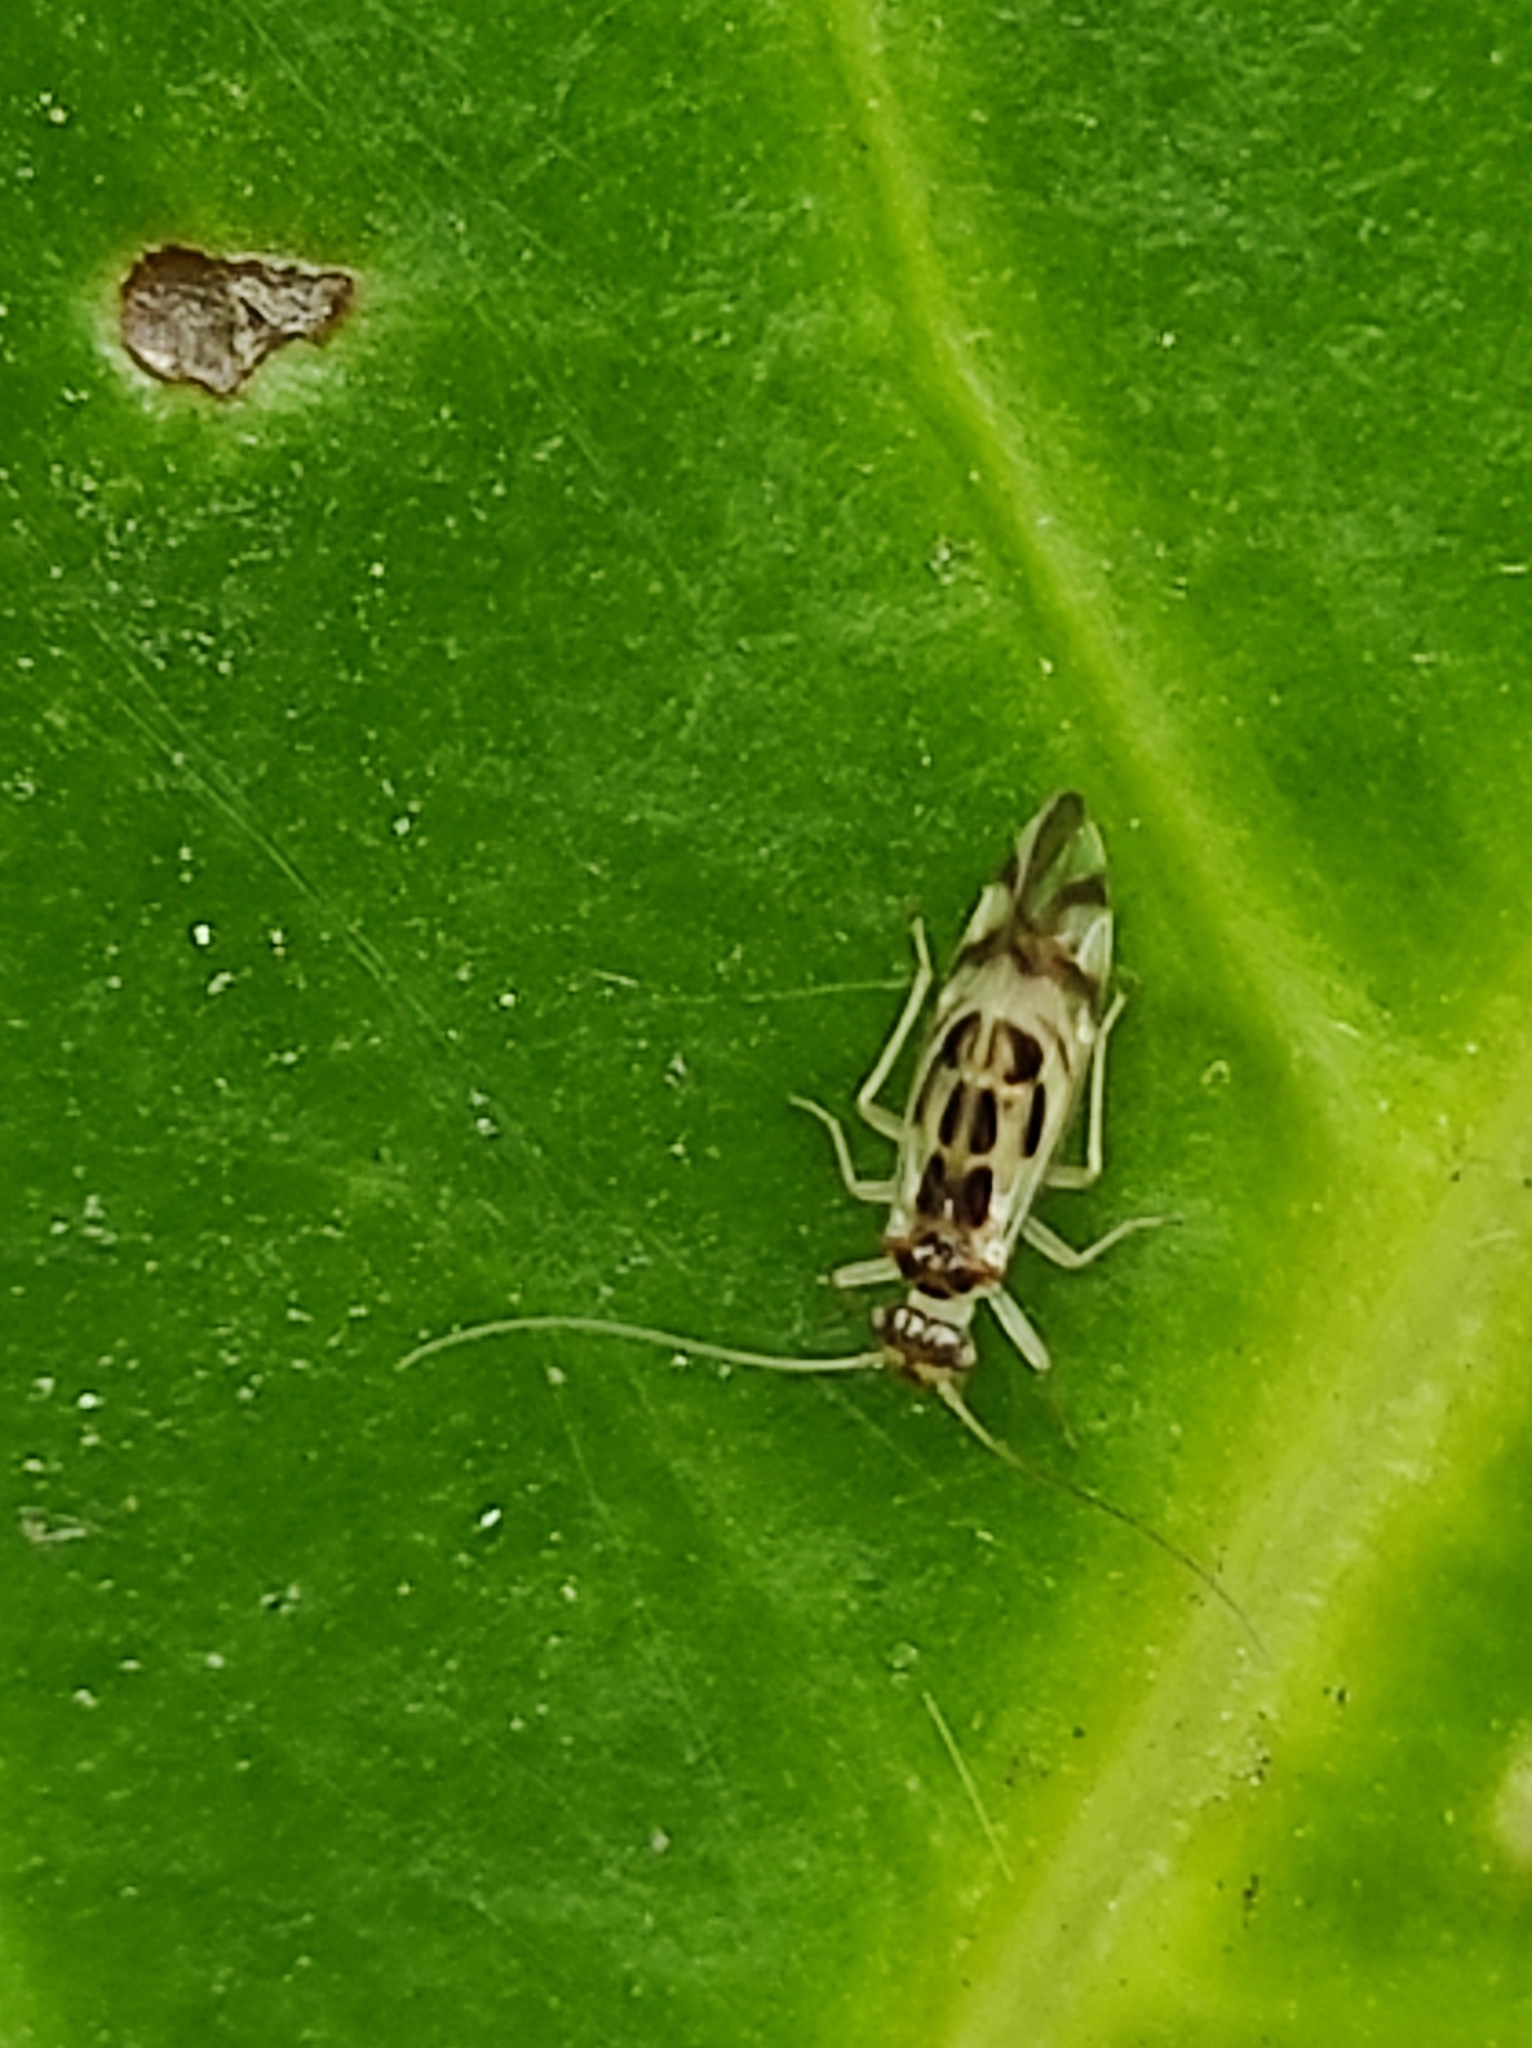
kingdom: Animalia
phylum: Arthropoda
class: Insecta
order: Psocodea
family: Stenopsocidae
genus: Graphopsocus
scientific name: Graphopsocus cruciatus
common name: Lizard bark louse
